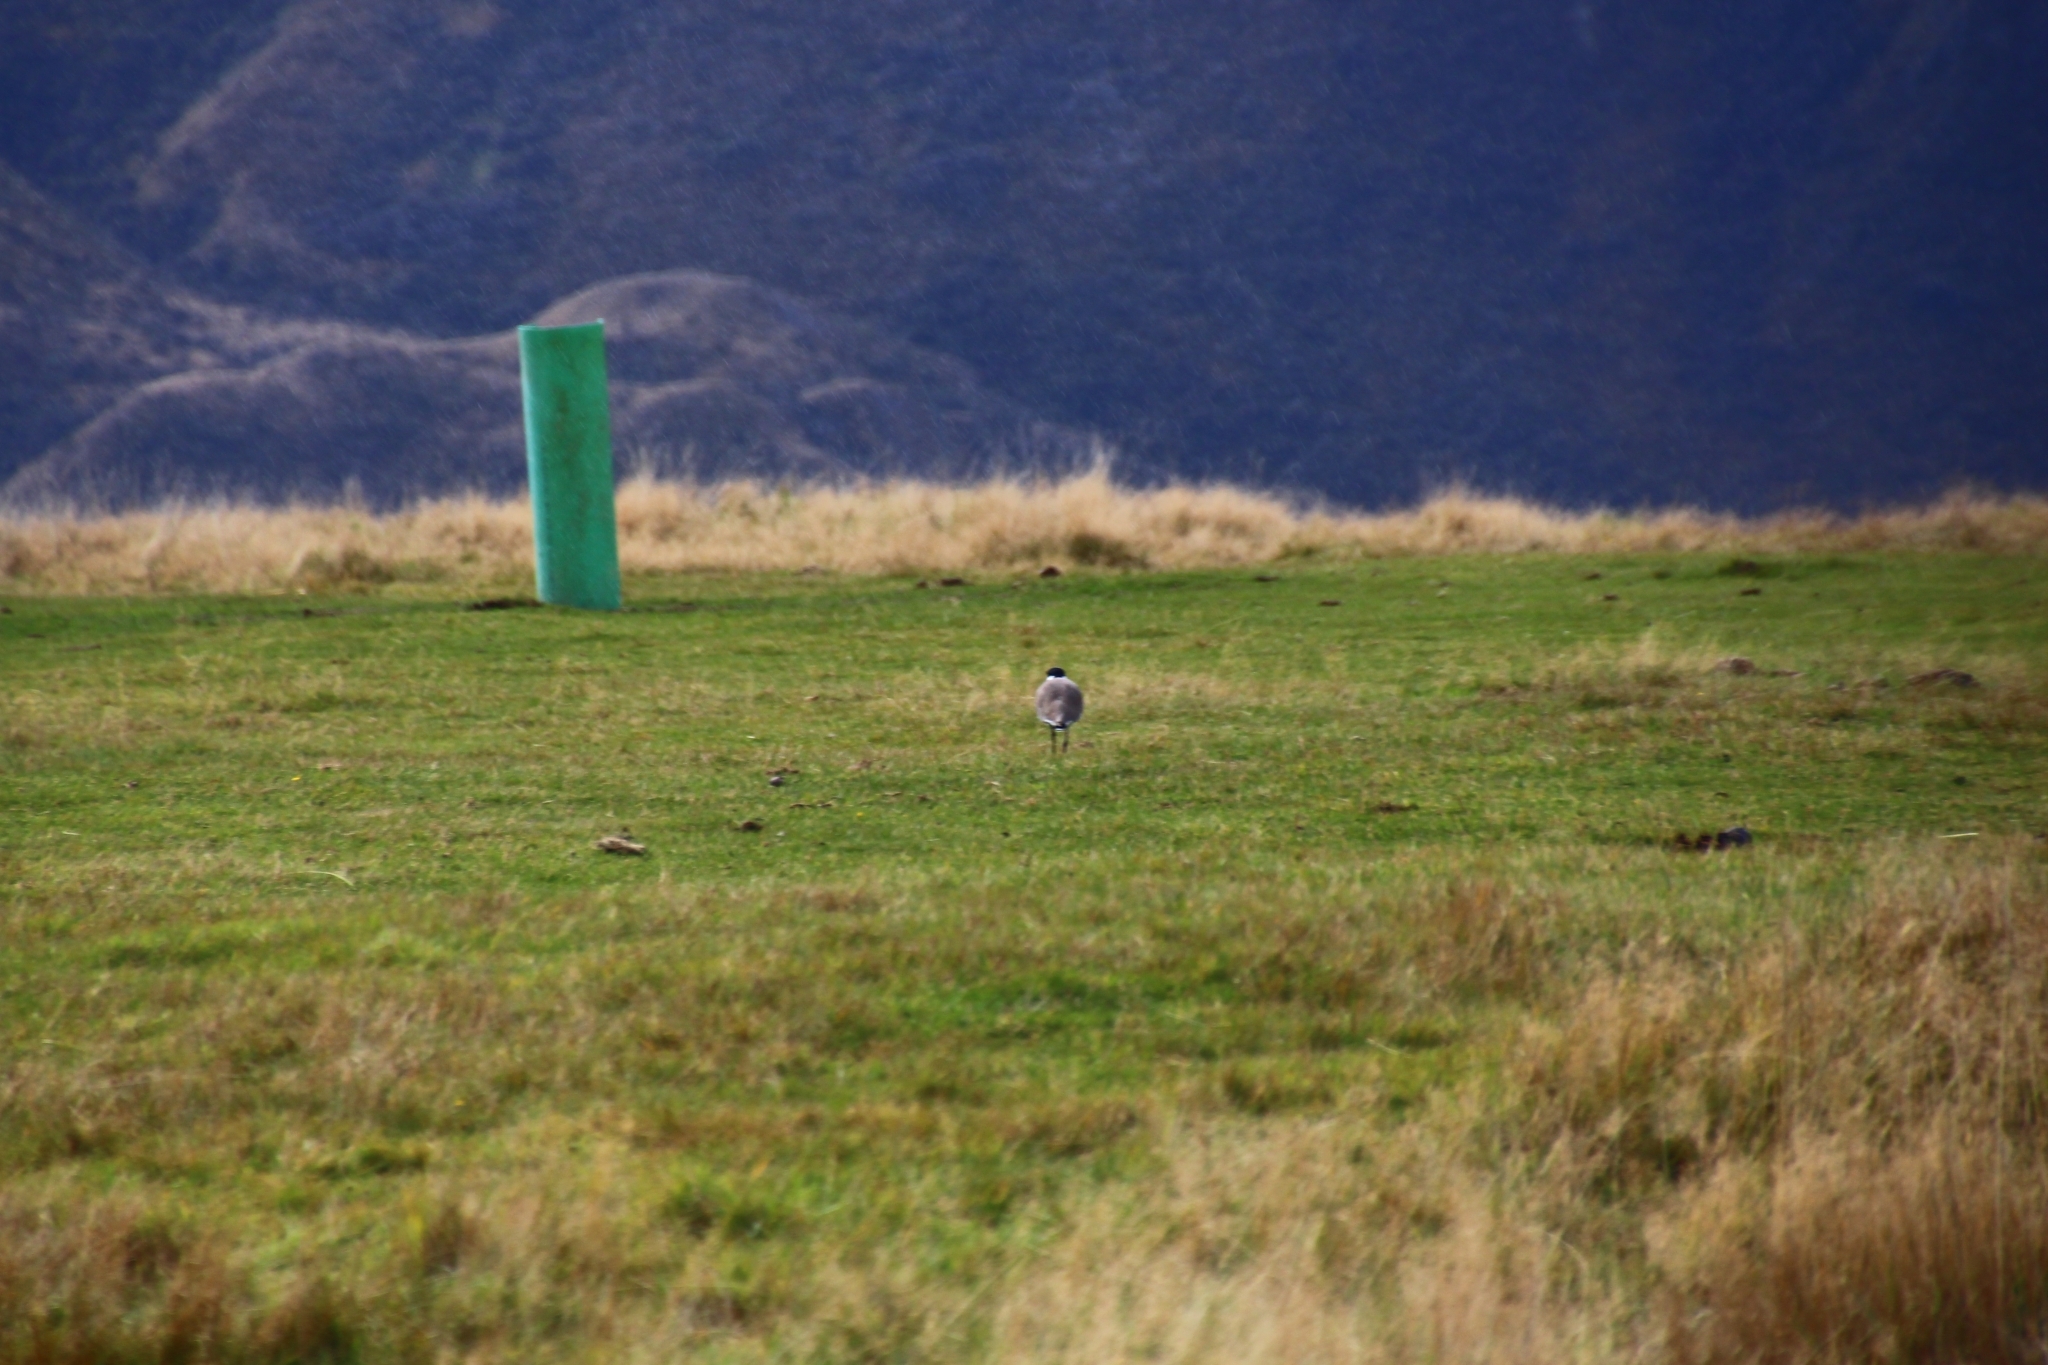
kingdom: Animalia
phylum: Chordata
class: Aves
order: Charadriiformes
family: Charadriidae
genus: Vanellus
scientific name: Vanellus miles
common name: Masked lapwing
